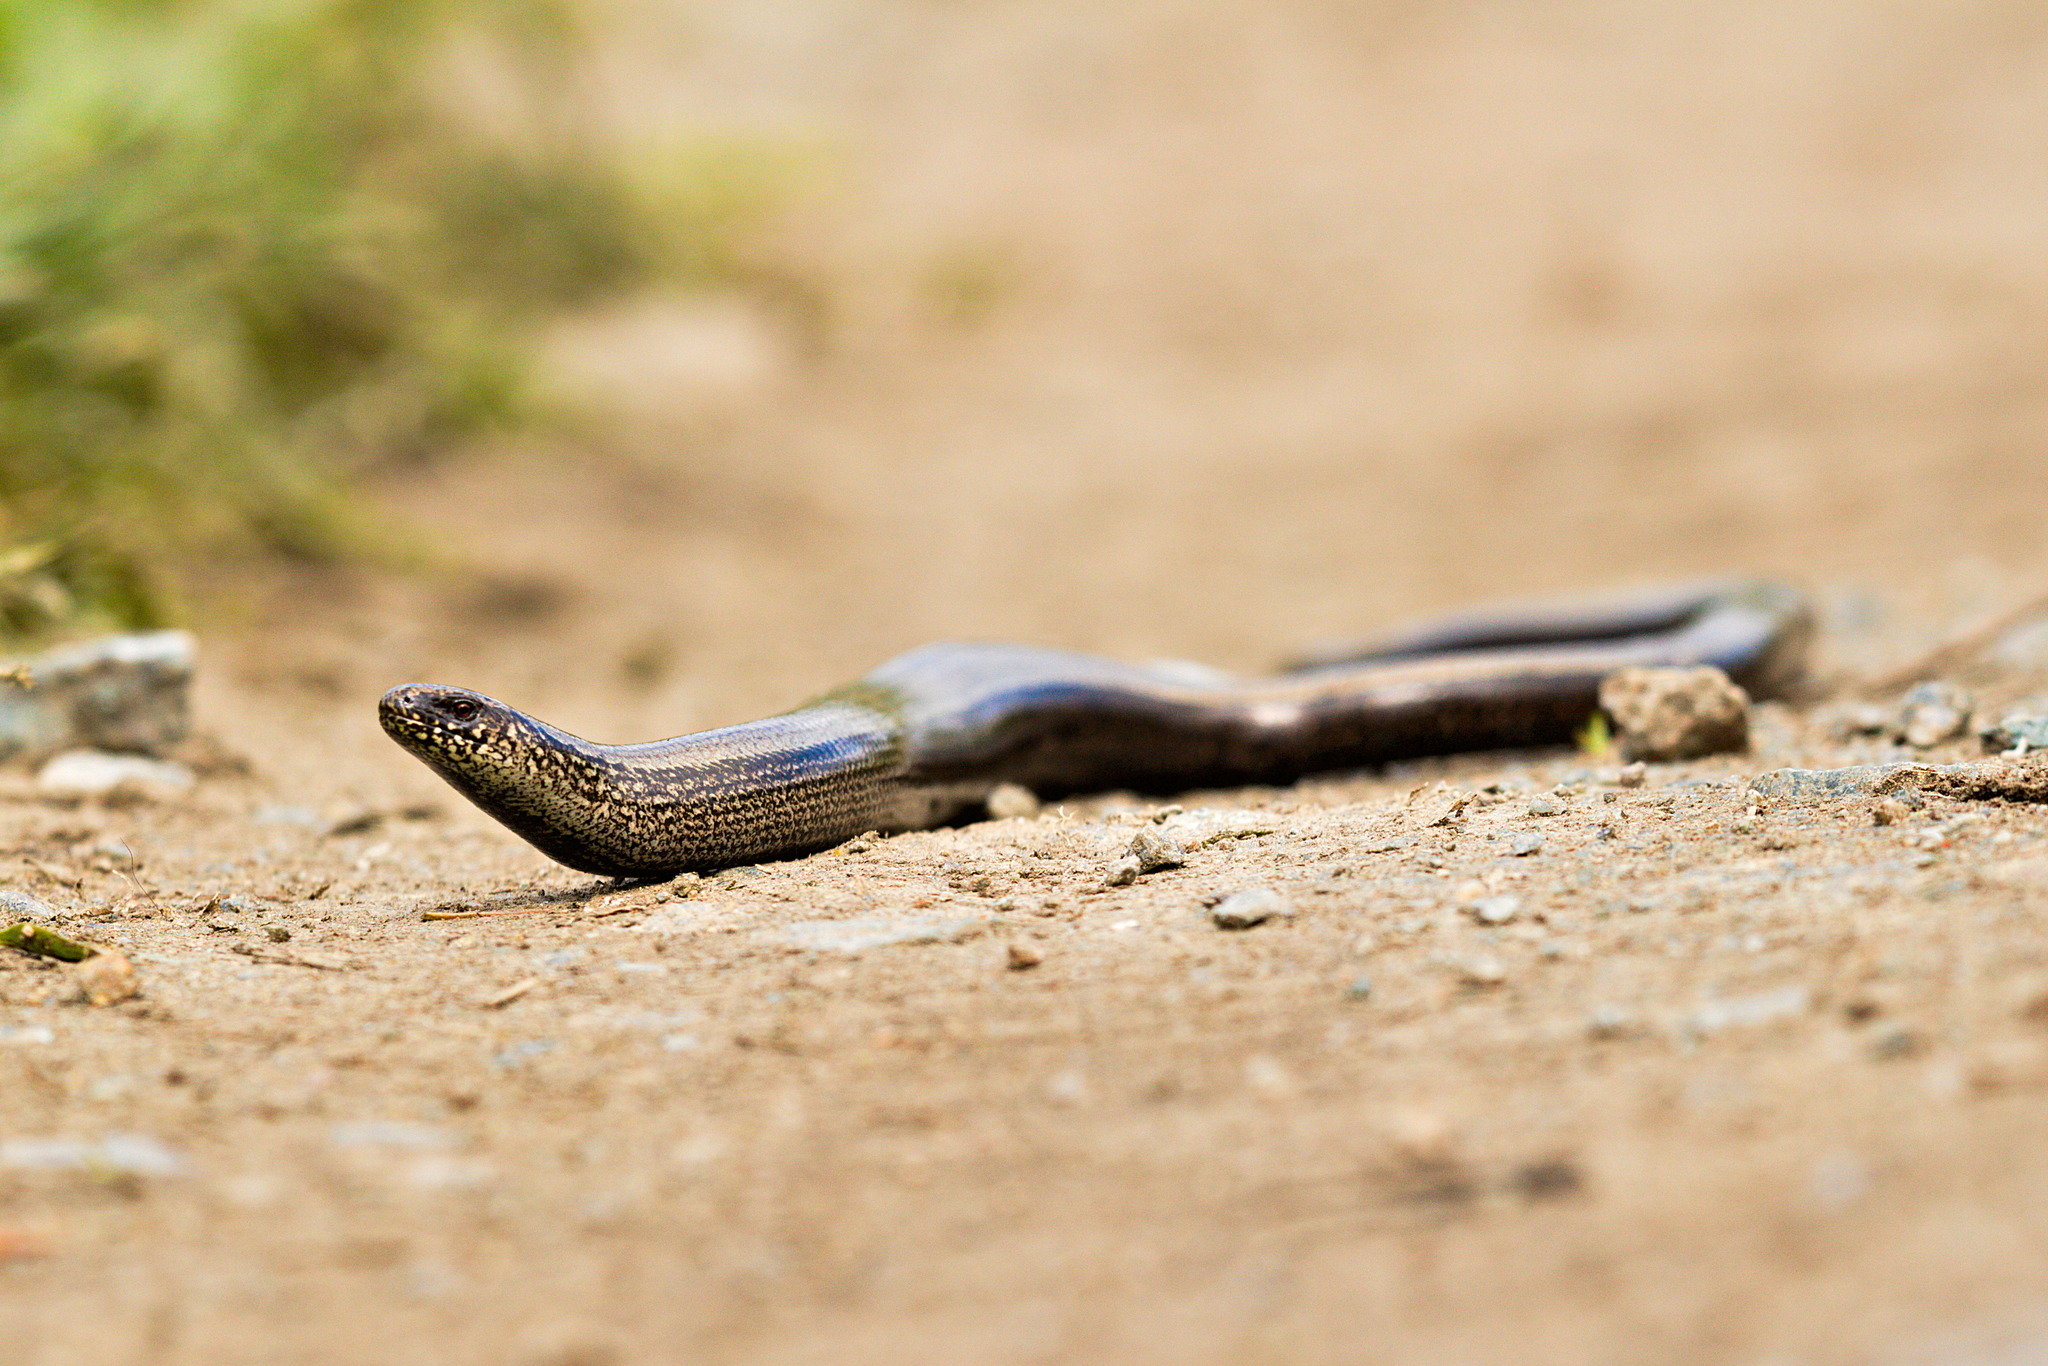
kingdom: Animalia
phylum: Chordata
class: Squamata
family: Anguidae
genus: Anguis
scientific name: Anguis fragilis
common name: Slow worm
